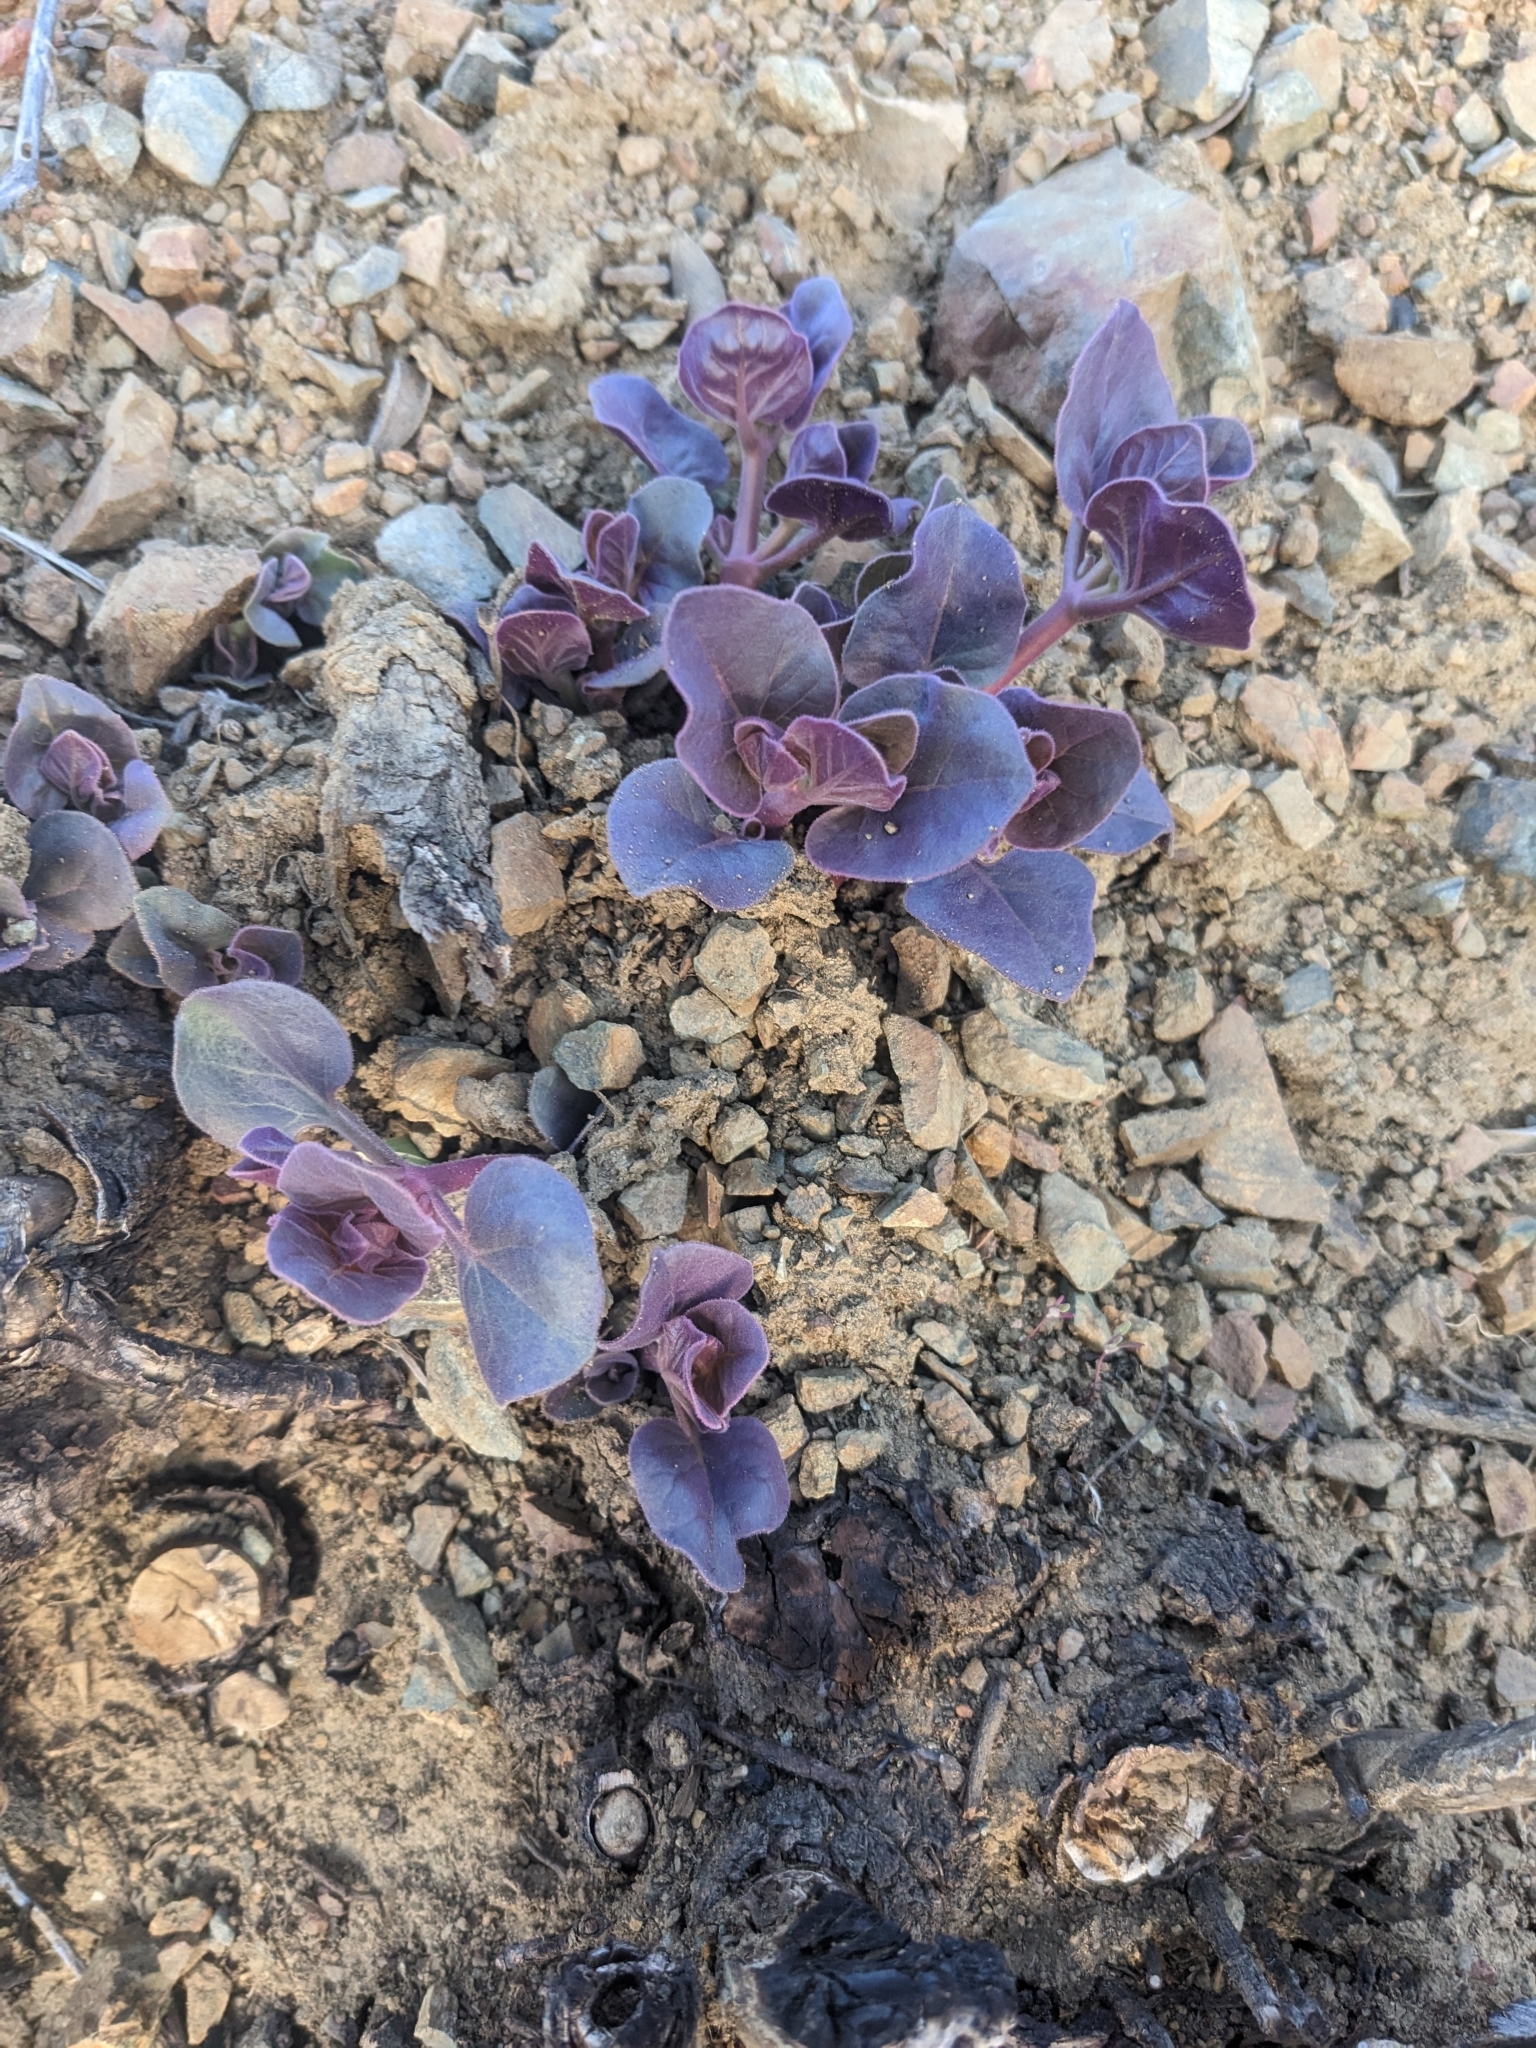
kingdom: Plantae
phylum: Tracheophyta
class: Magnoliopsida
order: Caryophyllales
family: Nyctaginaceae
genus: Mirabilis
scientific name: Mirabilis multiflora
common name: Froebel's four-o'clock
